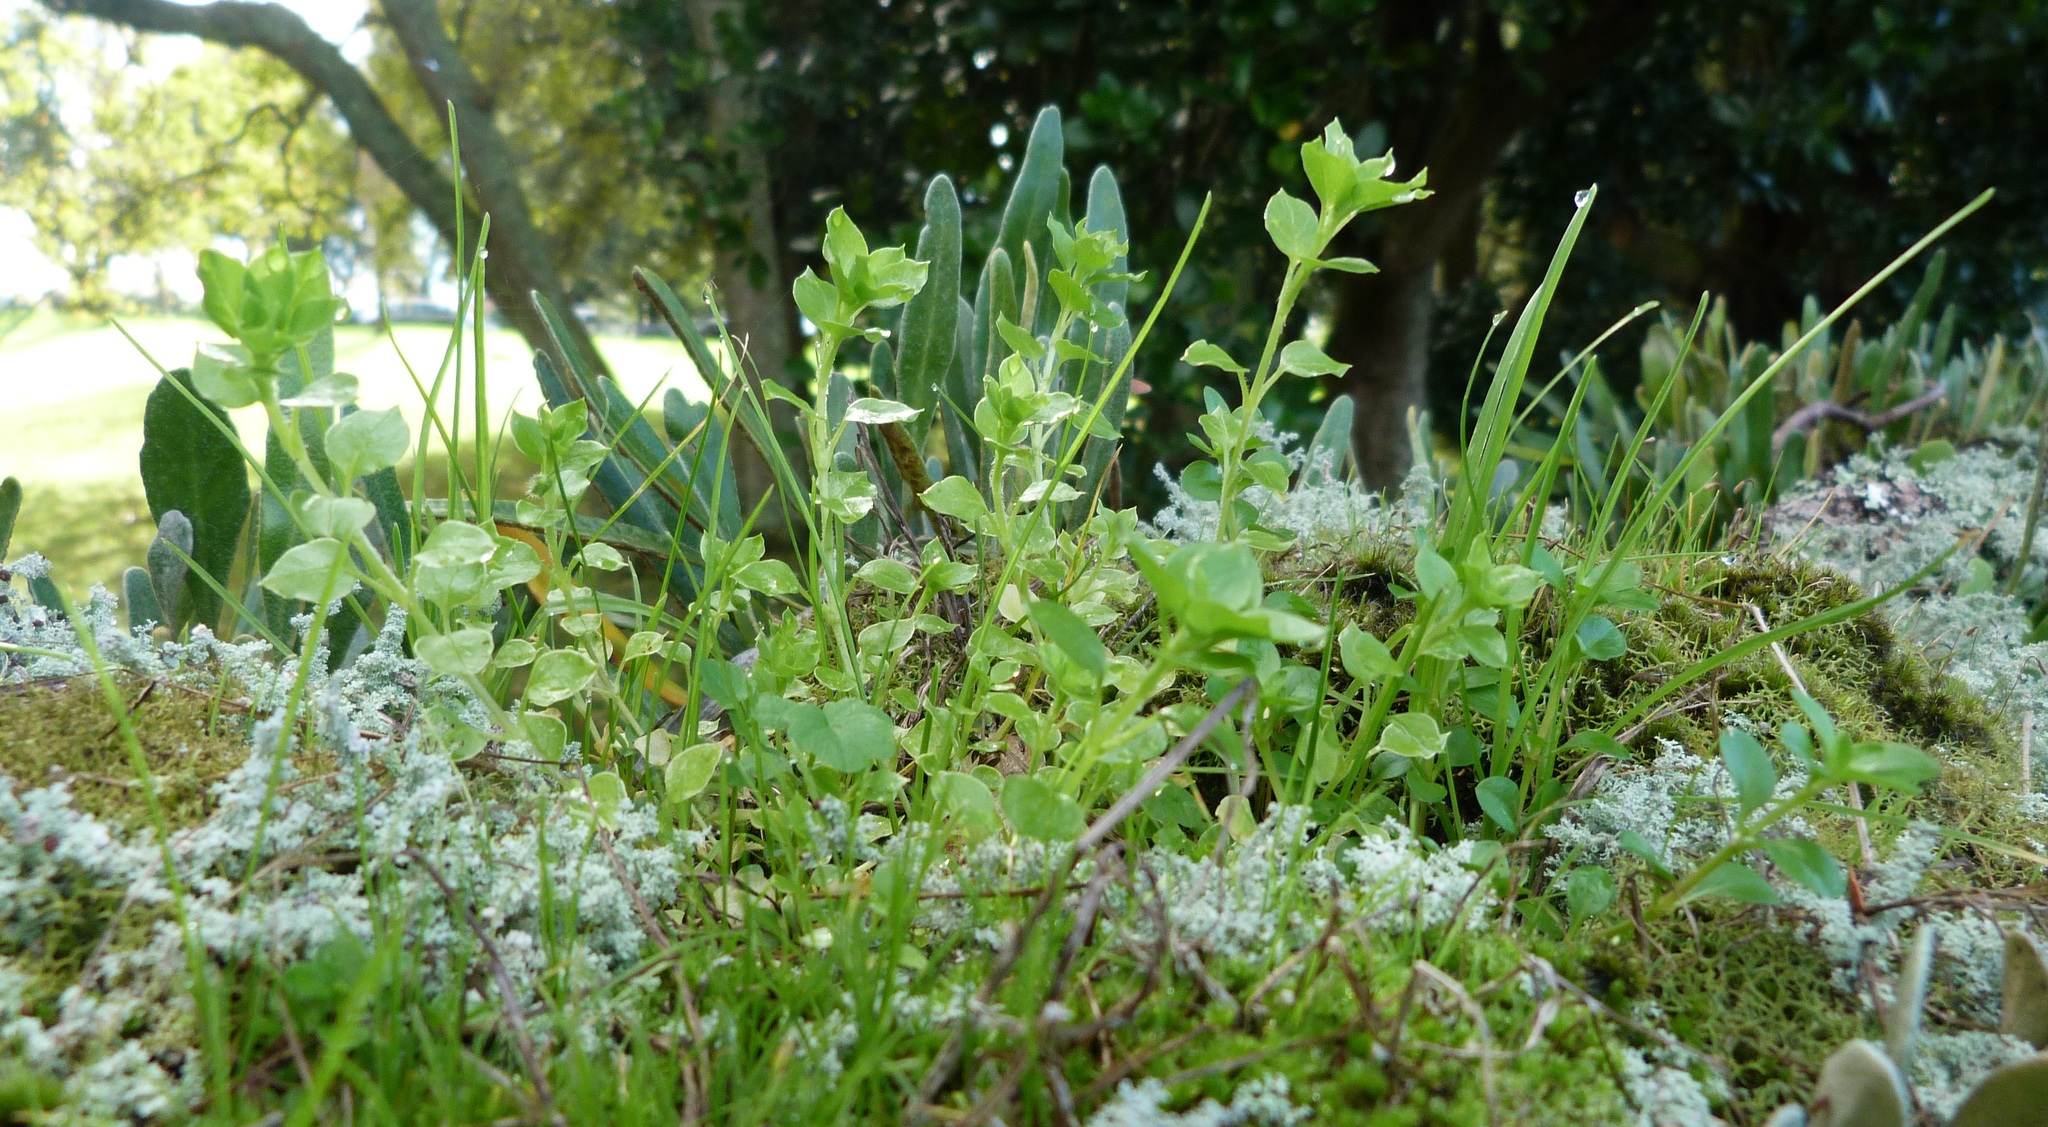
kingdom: Plantae
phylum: Tracheophyta
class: Magnoliopsida
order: Caryophyllales
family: Caryophyllaceae
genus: Stellaria
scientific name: Stellaria media
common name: Common chickweed
